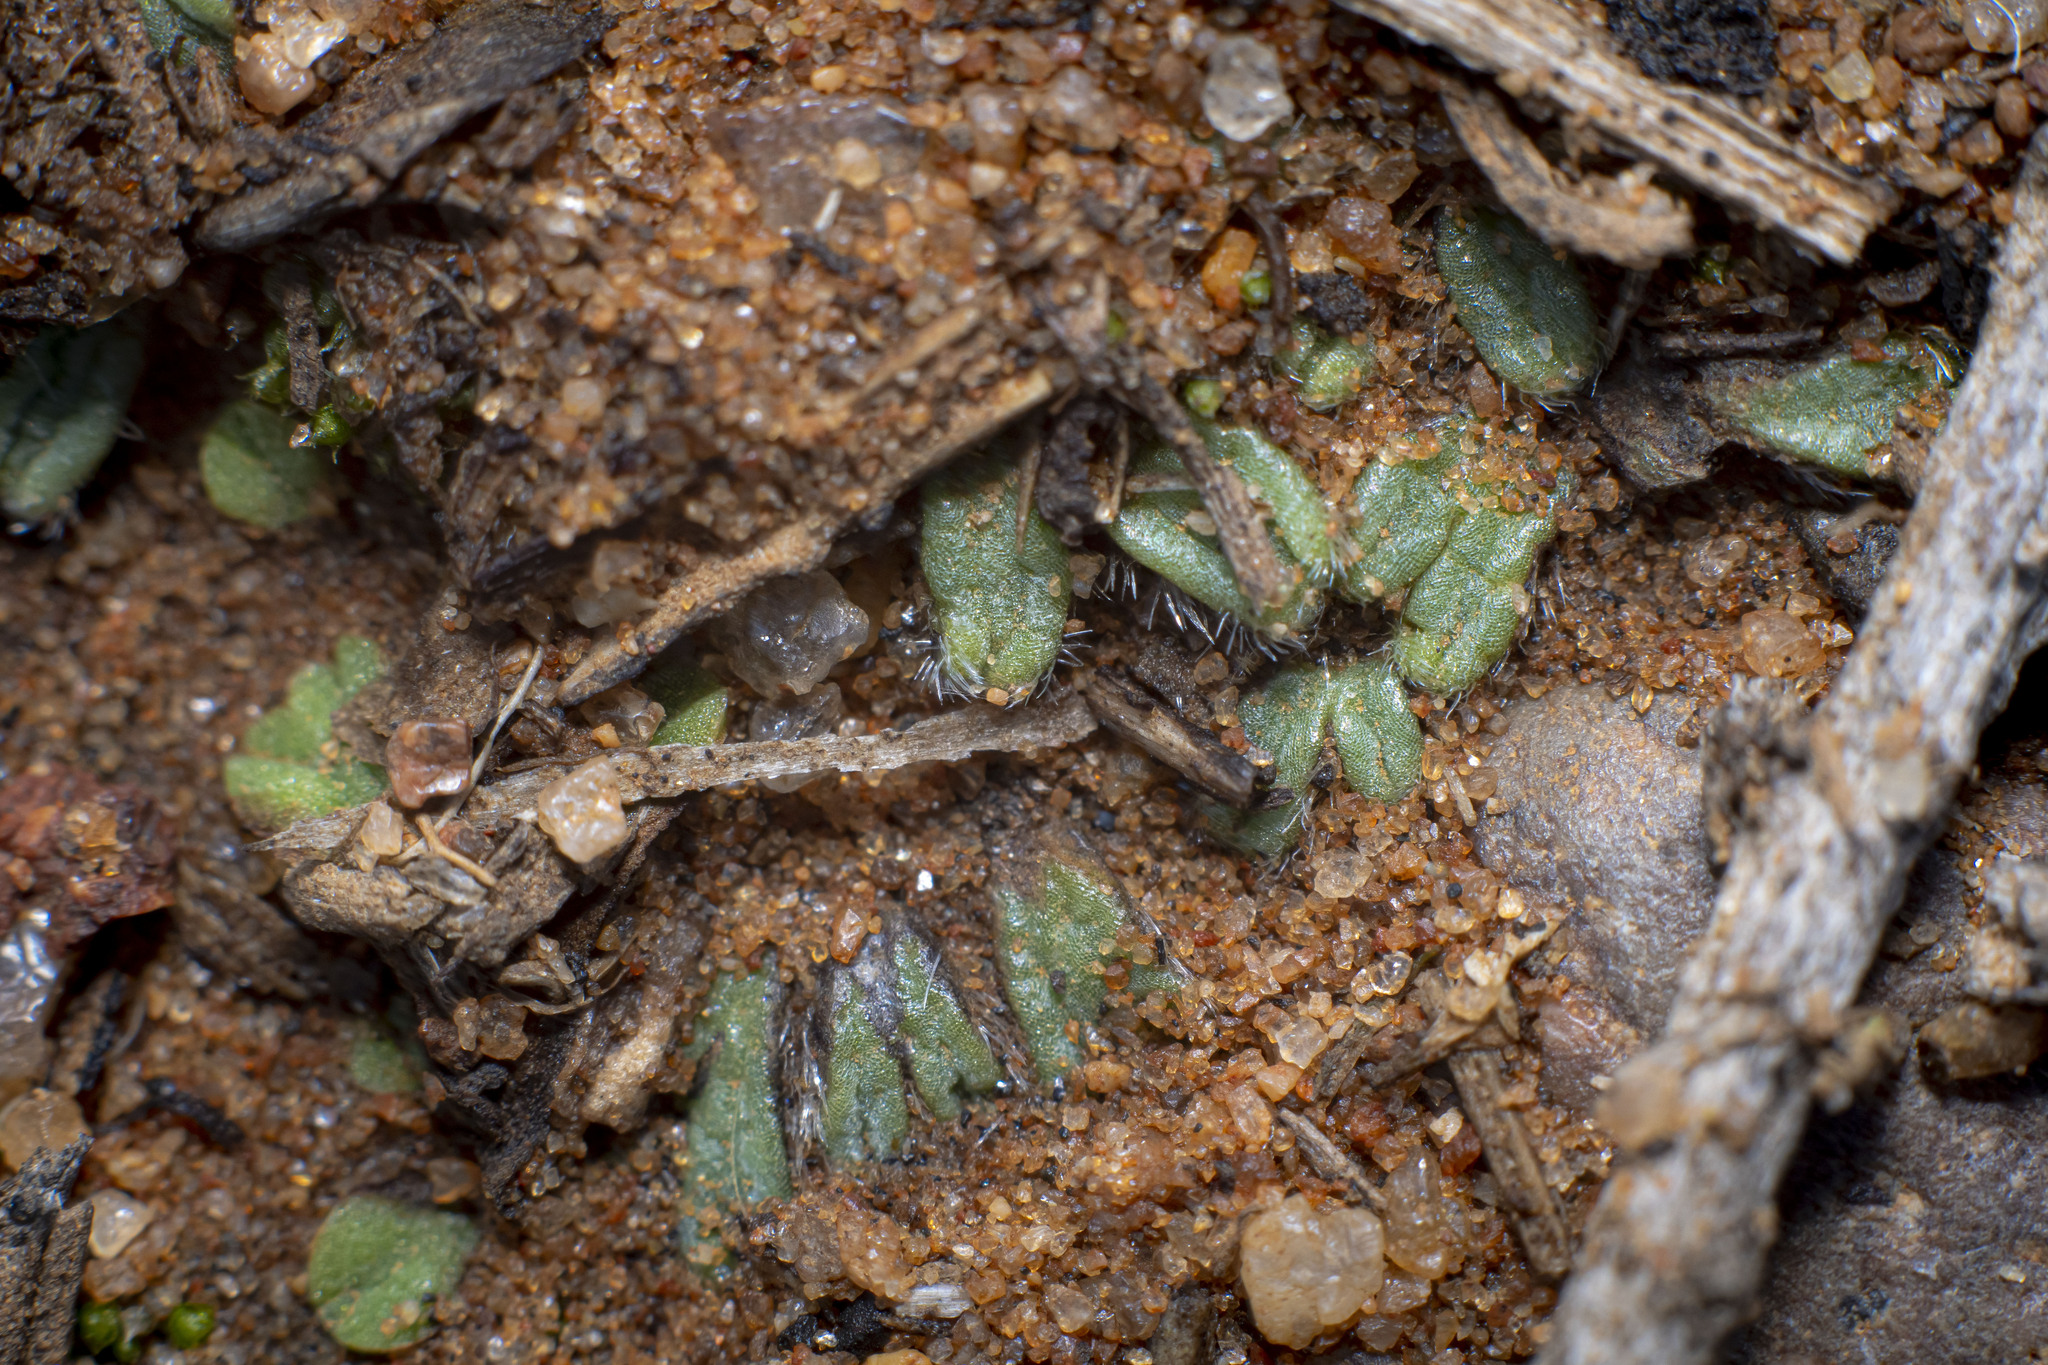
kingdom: Plantae
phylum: Marchantiophyta
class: Marchantiopsida
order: Marchantiales
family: Ricciaceae
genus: Riccia
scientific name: Riccia trichocarpa
